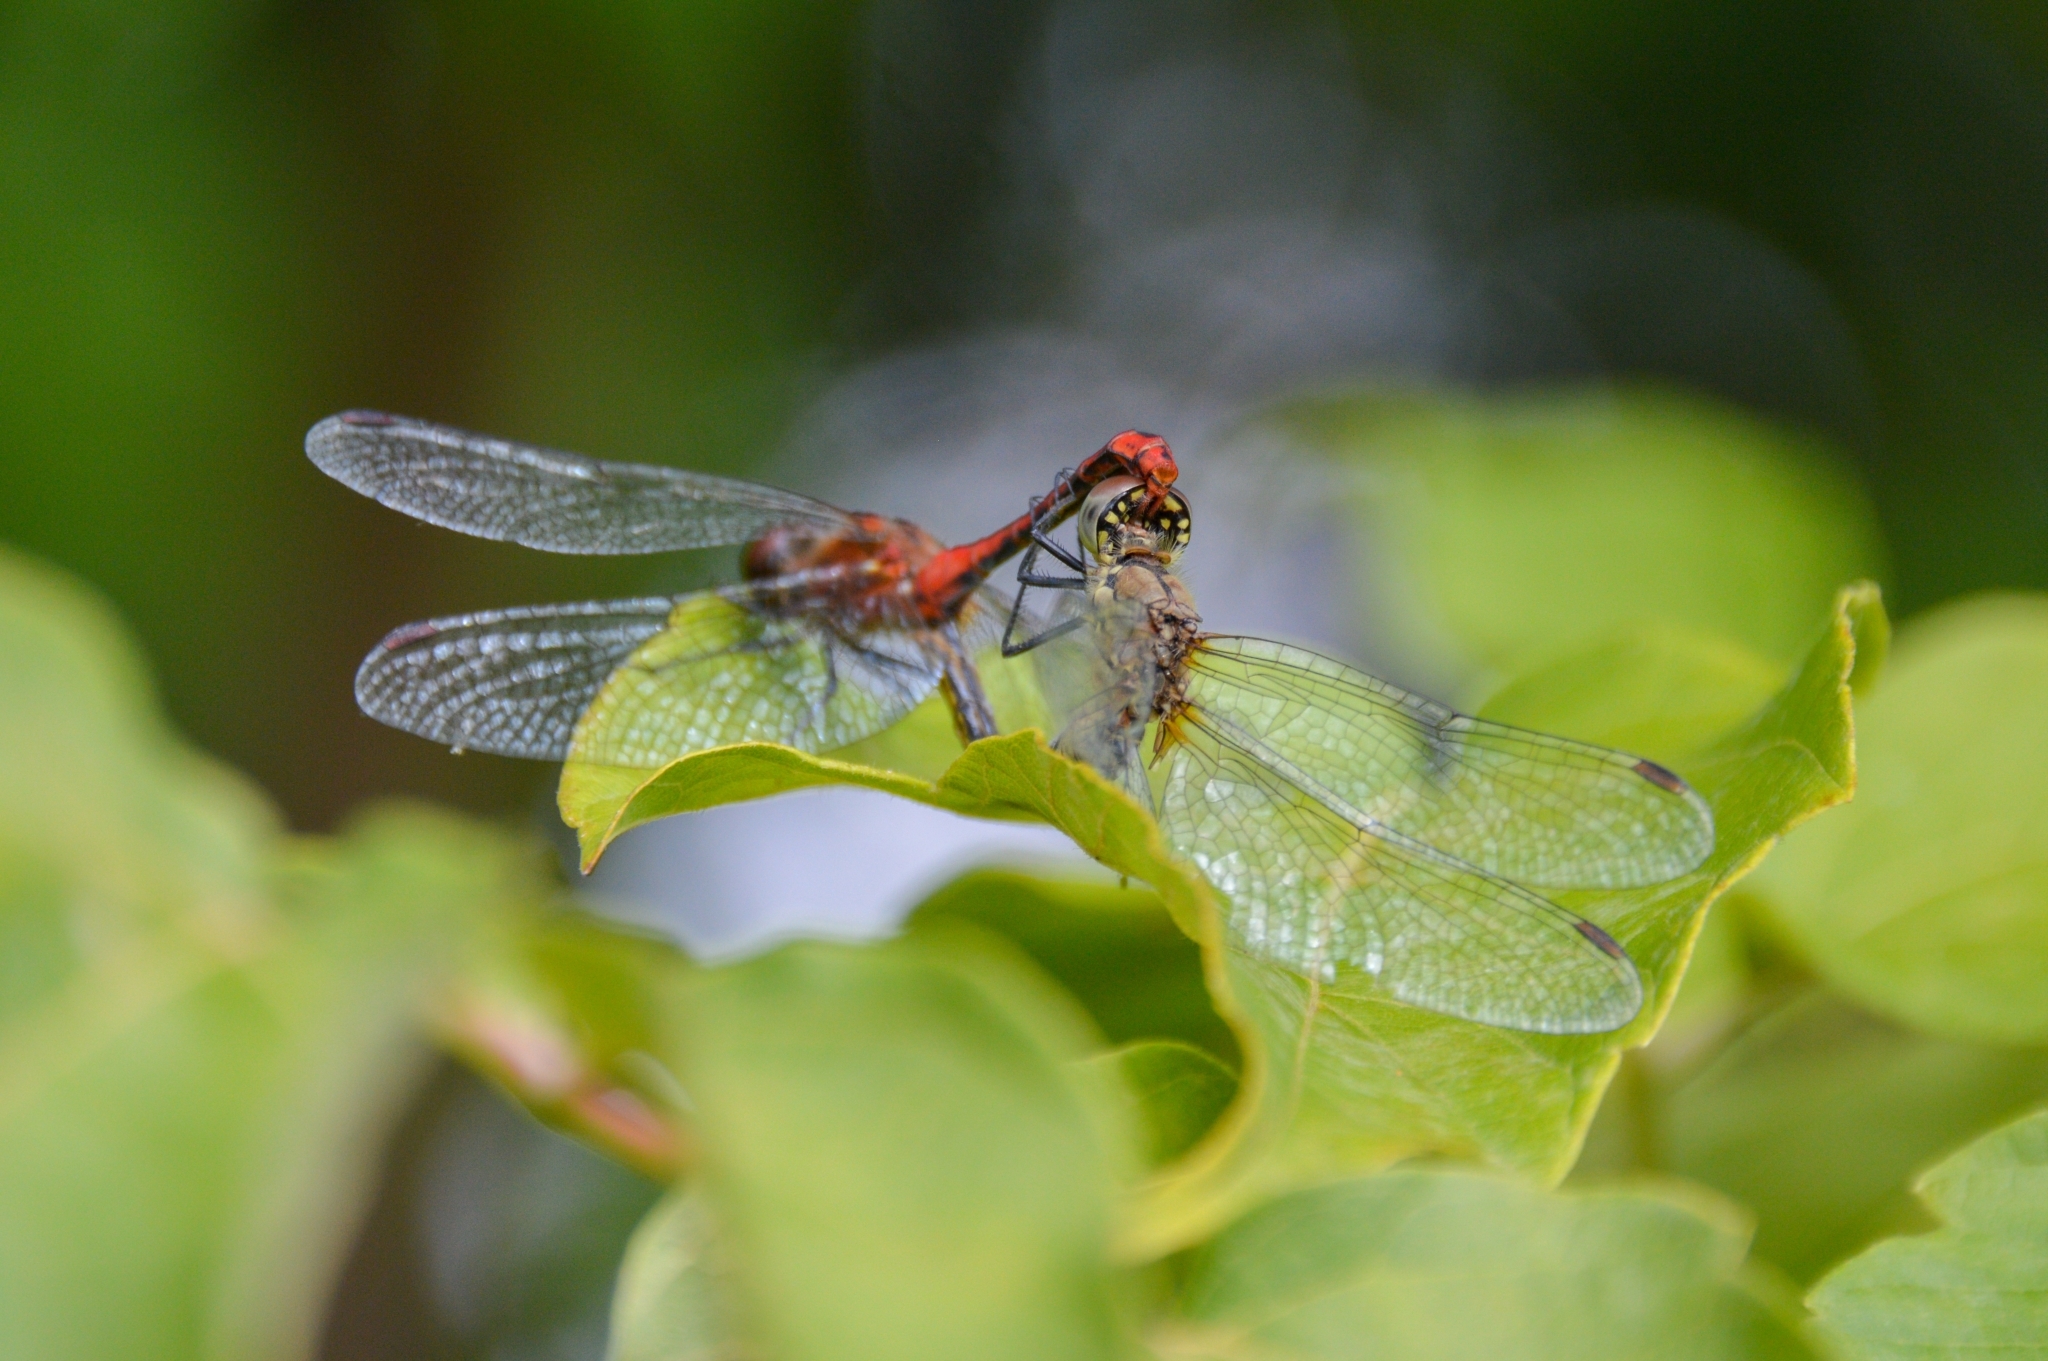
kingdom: Animalia
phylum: Arthropoda
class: Insecta
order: Odonata
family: Libellulidae
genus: Sympetrum
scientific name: Sympetrum sanguineum
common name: Ruddy darter
